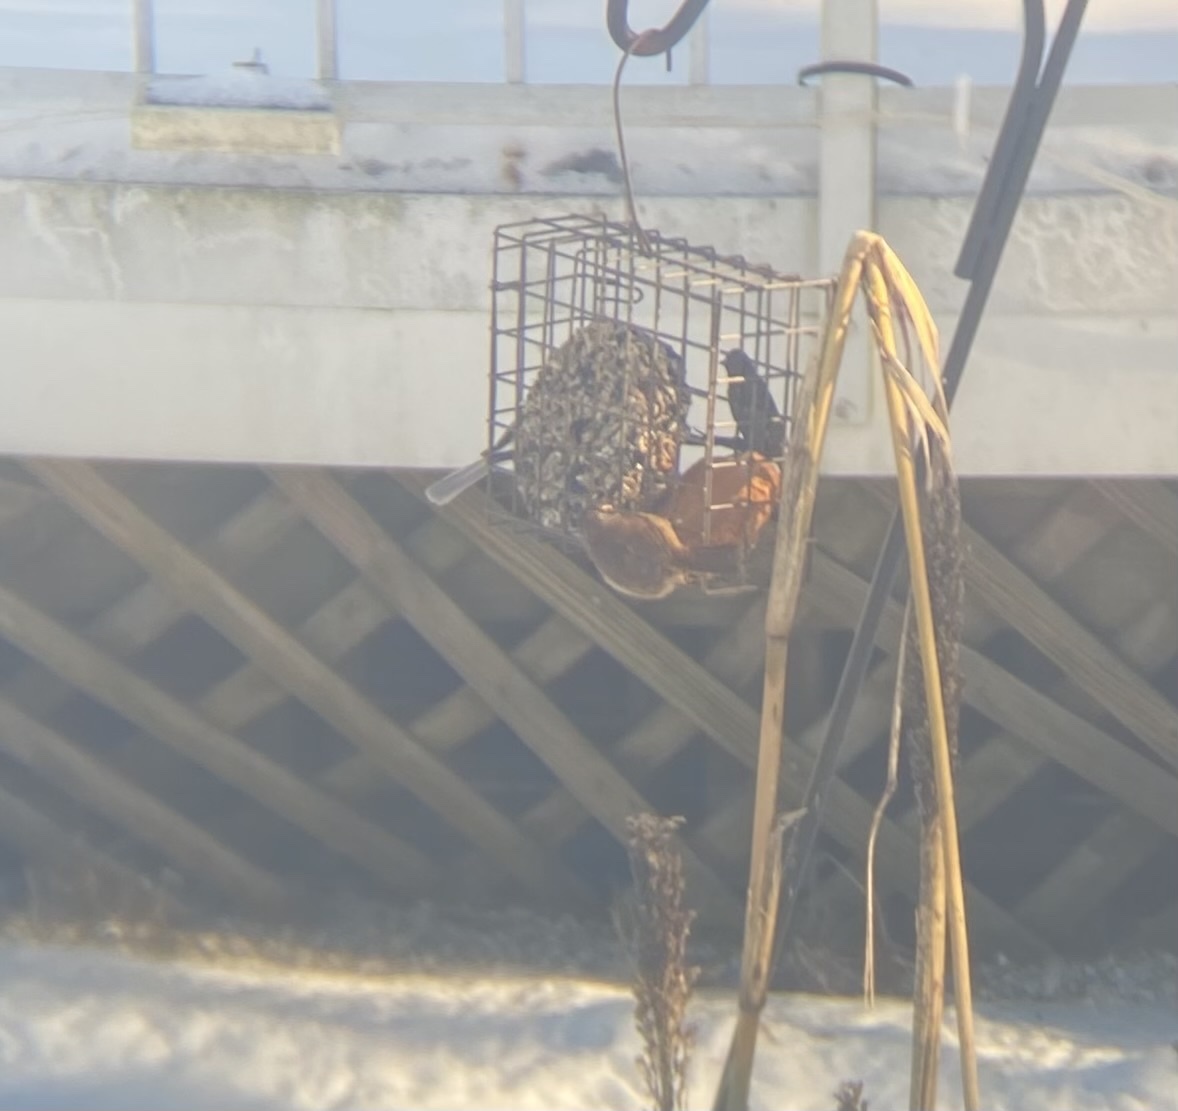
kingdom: Animalia
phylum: Chordata
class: Aves
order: Passeriformes
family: Troglodytidae
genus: Thryothorus
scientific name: Thryothorus ludovicianus
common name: Carolina wren
